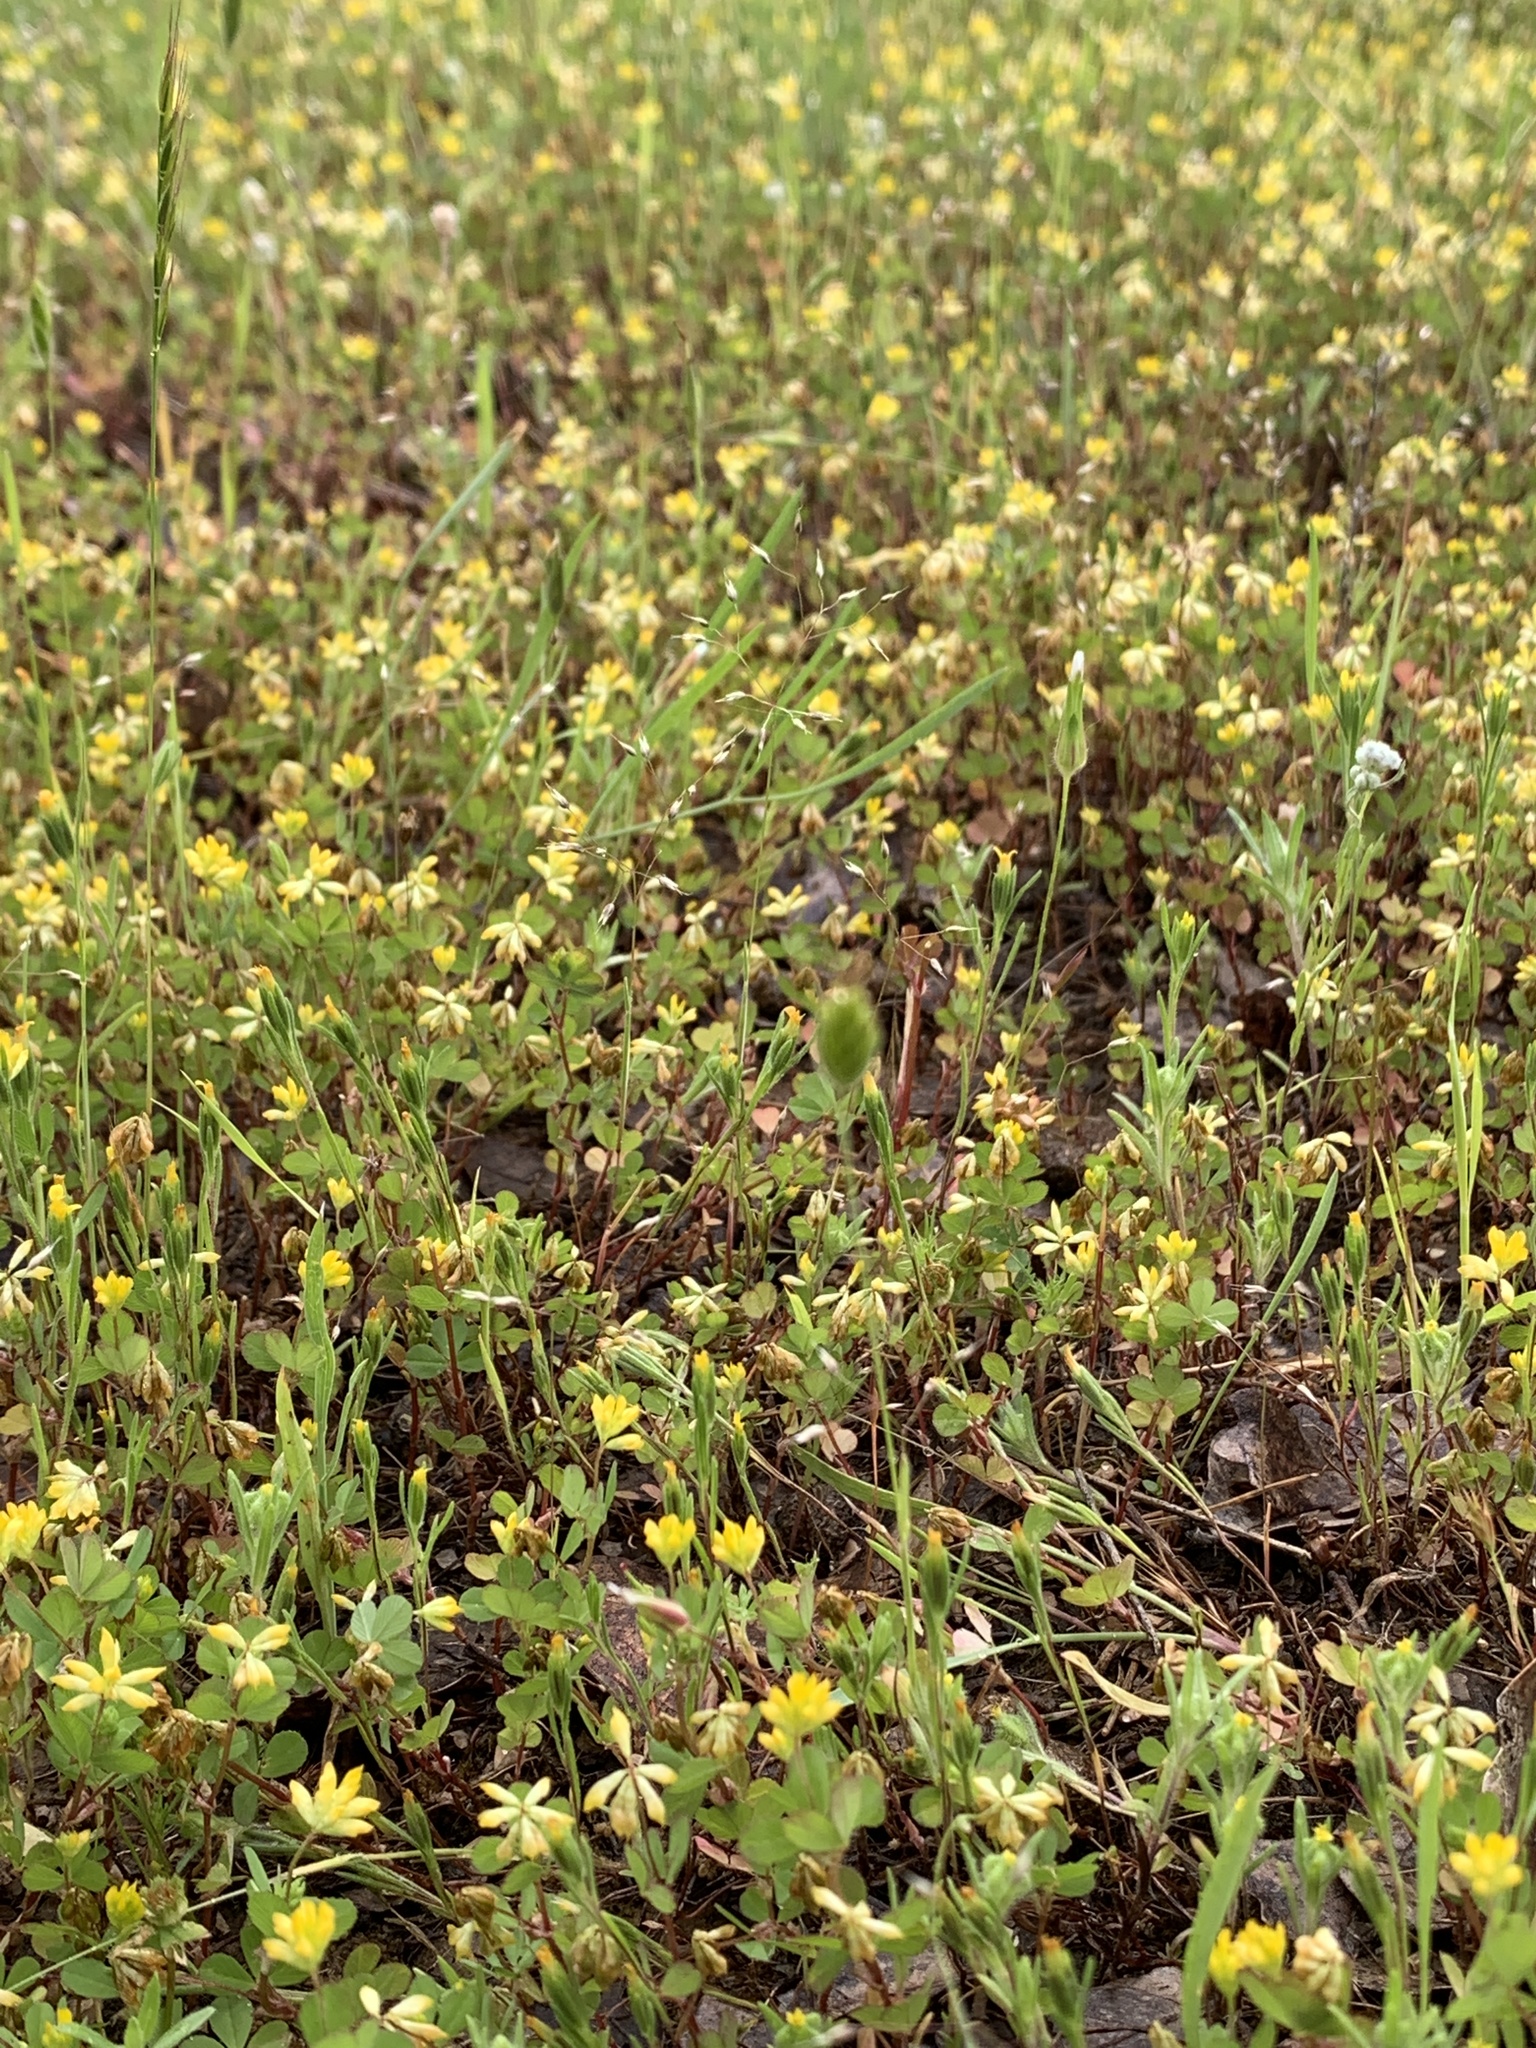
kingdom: Plantae
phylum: Tracheophyta
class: Magnoliopsida
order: Fabales
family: Fabaceae
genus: Trifolium
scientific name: Trifolium dubium
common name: Suckling clover
